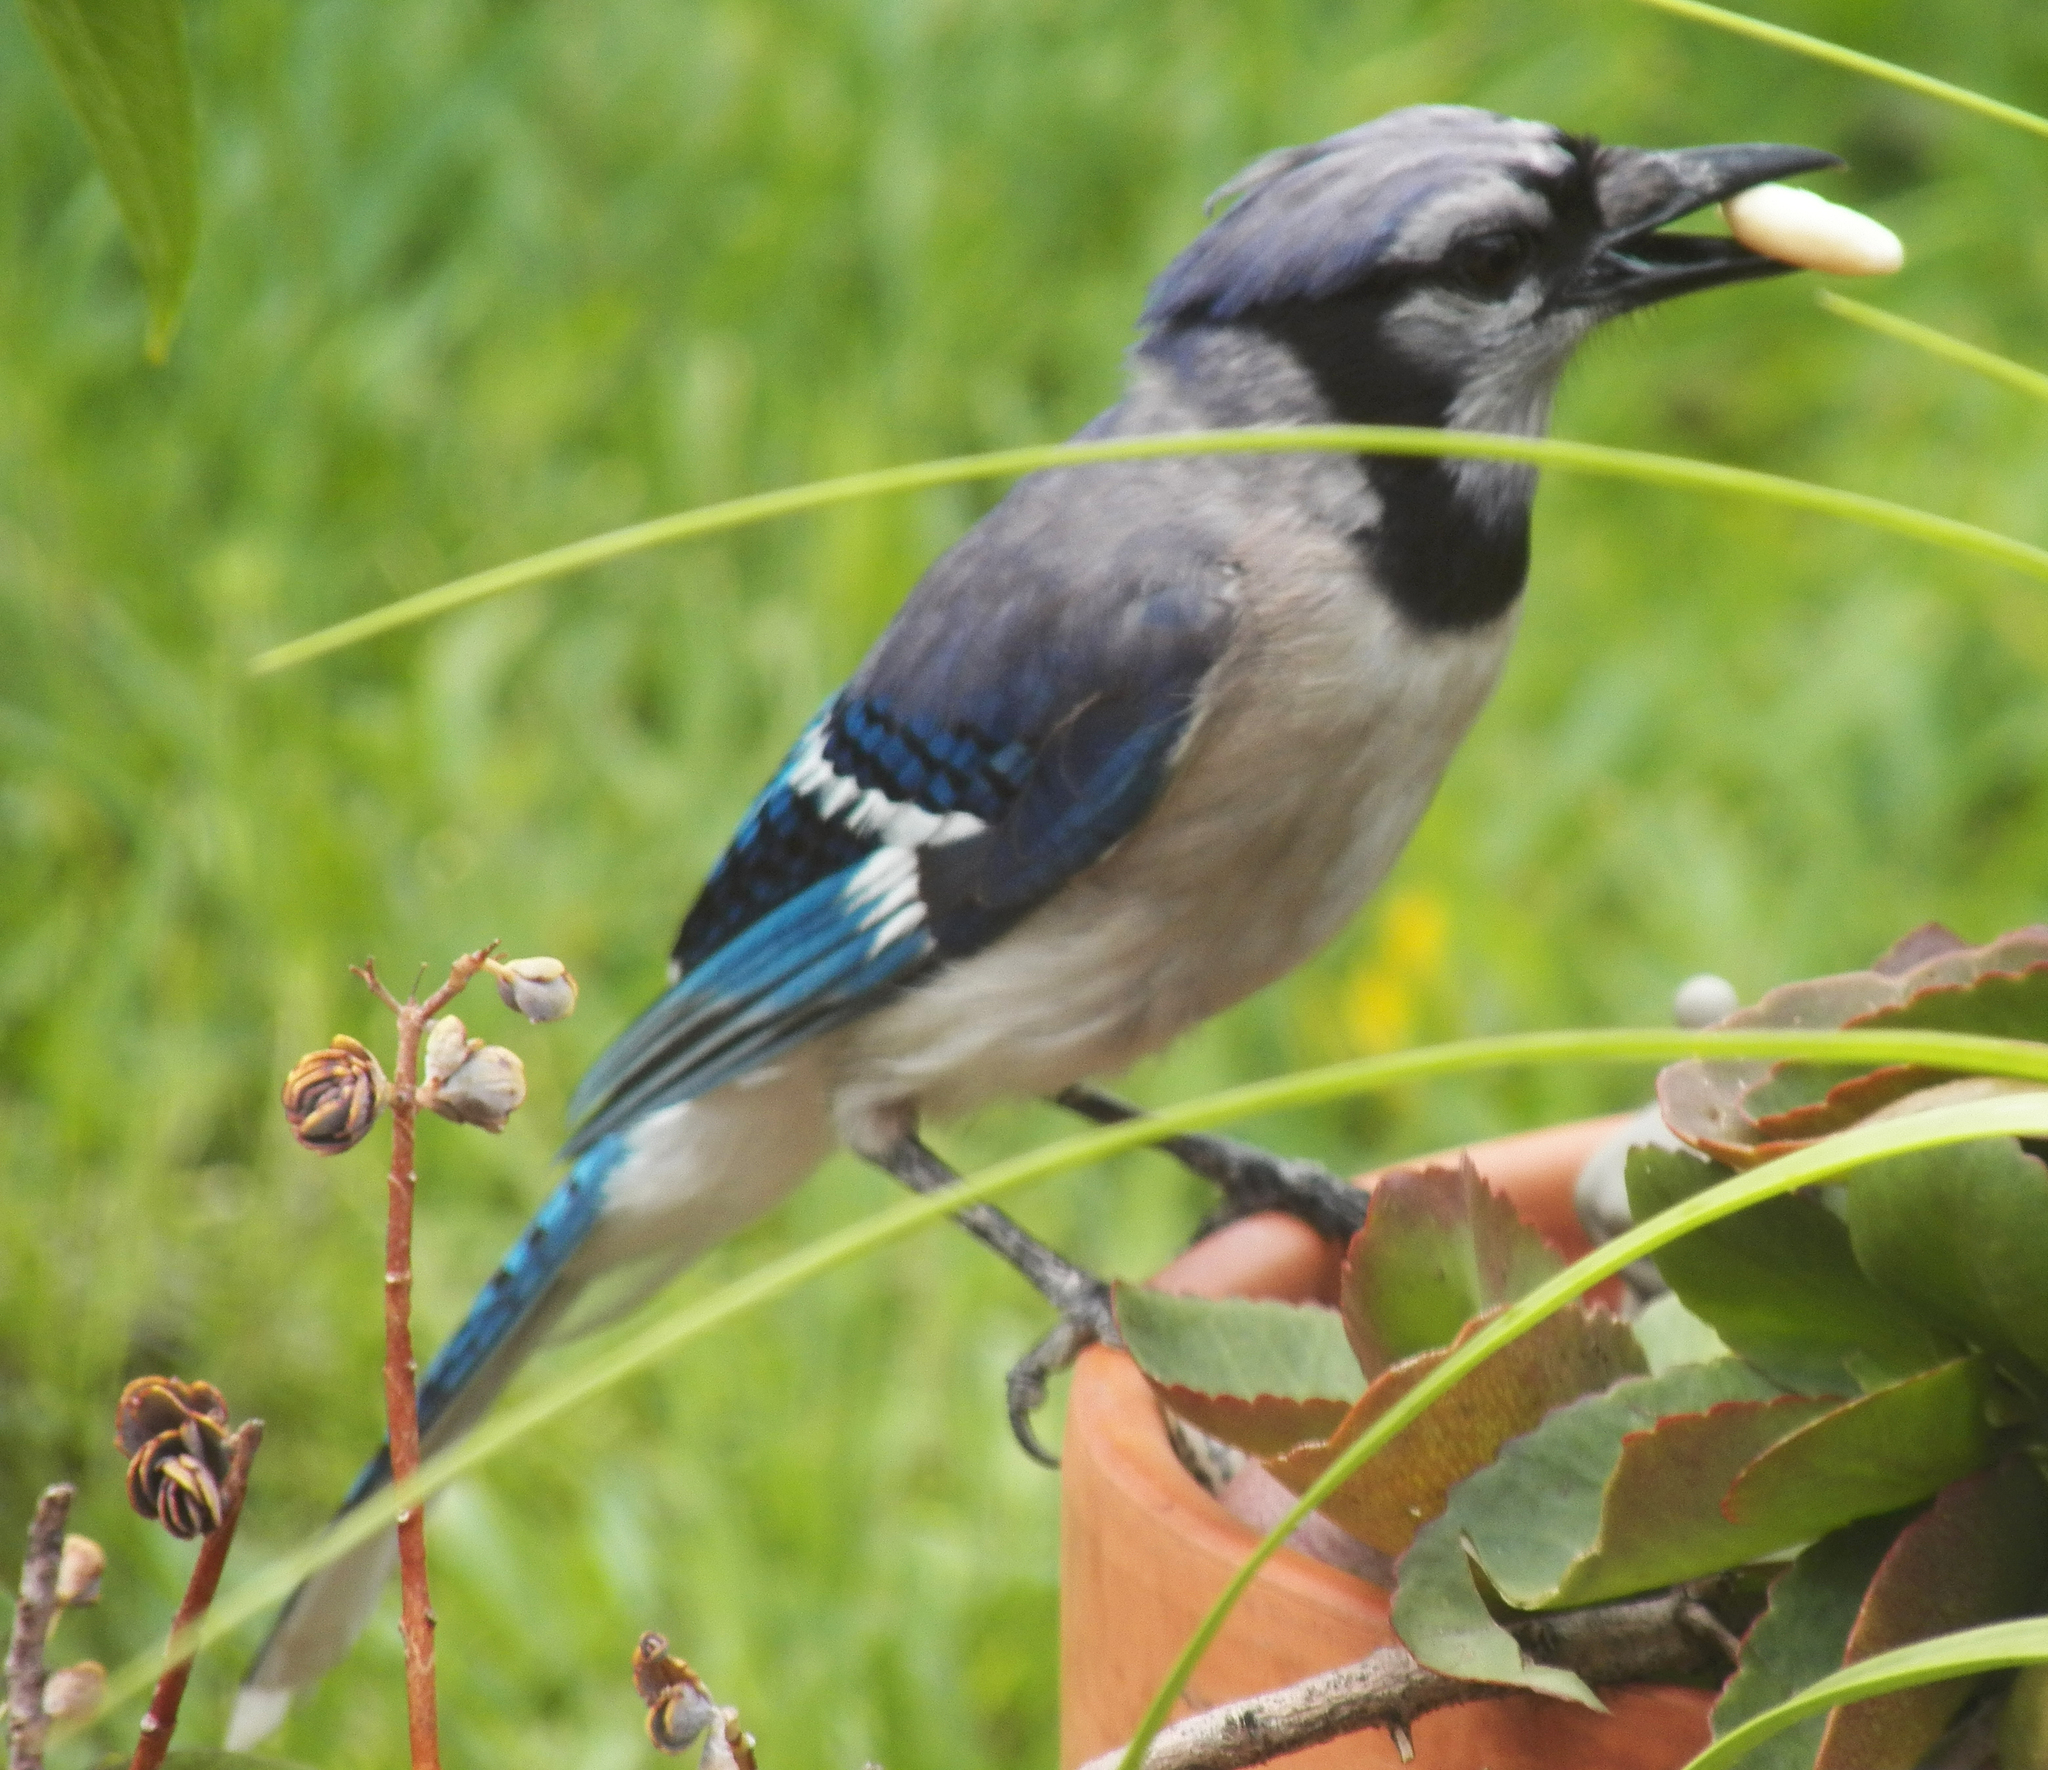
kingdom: Animalia
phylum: Chordata
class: Aves
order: Passeriformes
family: Corvidae
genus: Cyanocitta
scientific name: Cyanocitta cristata
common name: Blue jay
